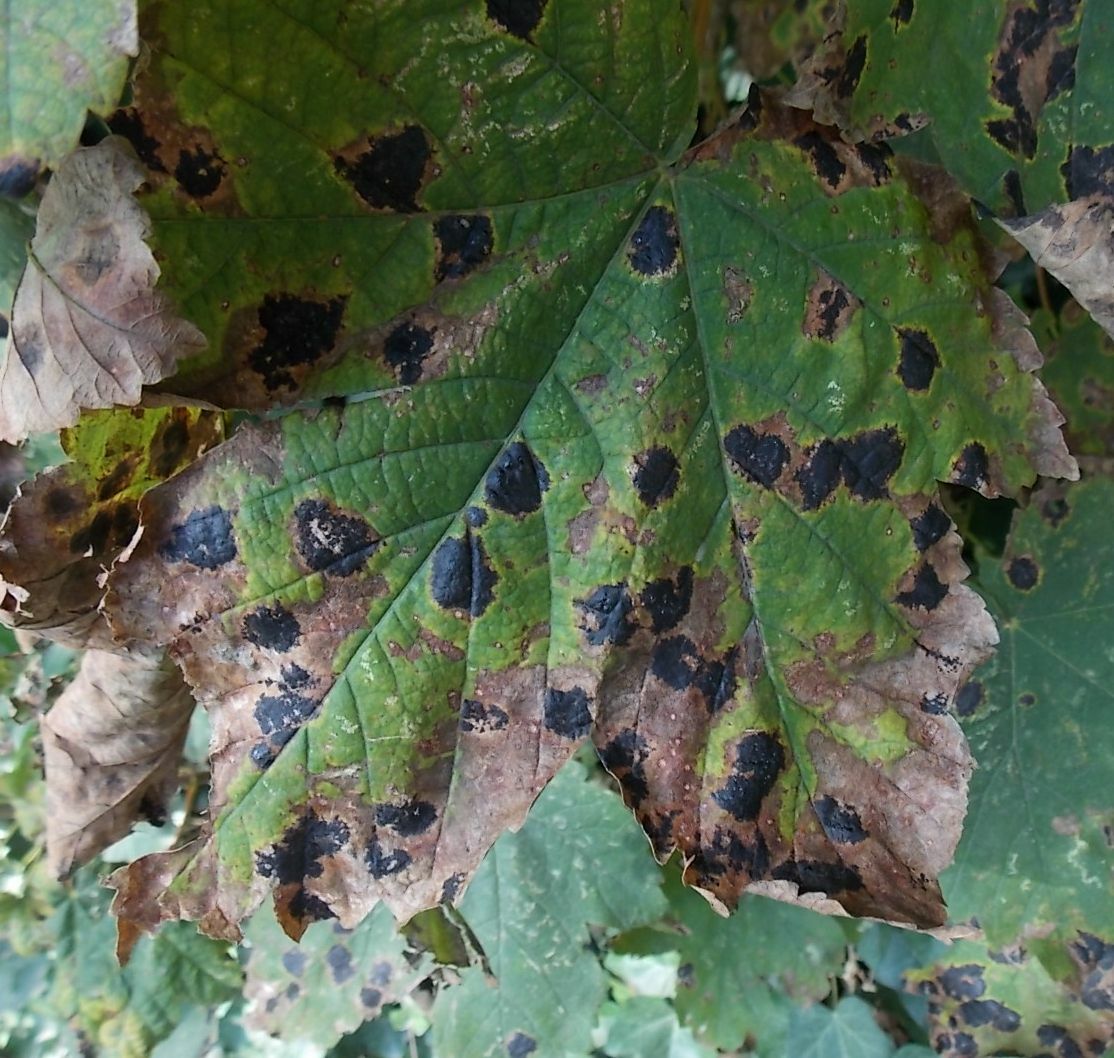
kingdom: Fungi
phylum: Ascomycota
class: Leotiomycetes
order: Rhytismatales
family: Rhytismataceae
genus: Rhytisma
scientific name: Rhytisma acerinum
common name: European tar spot
